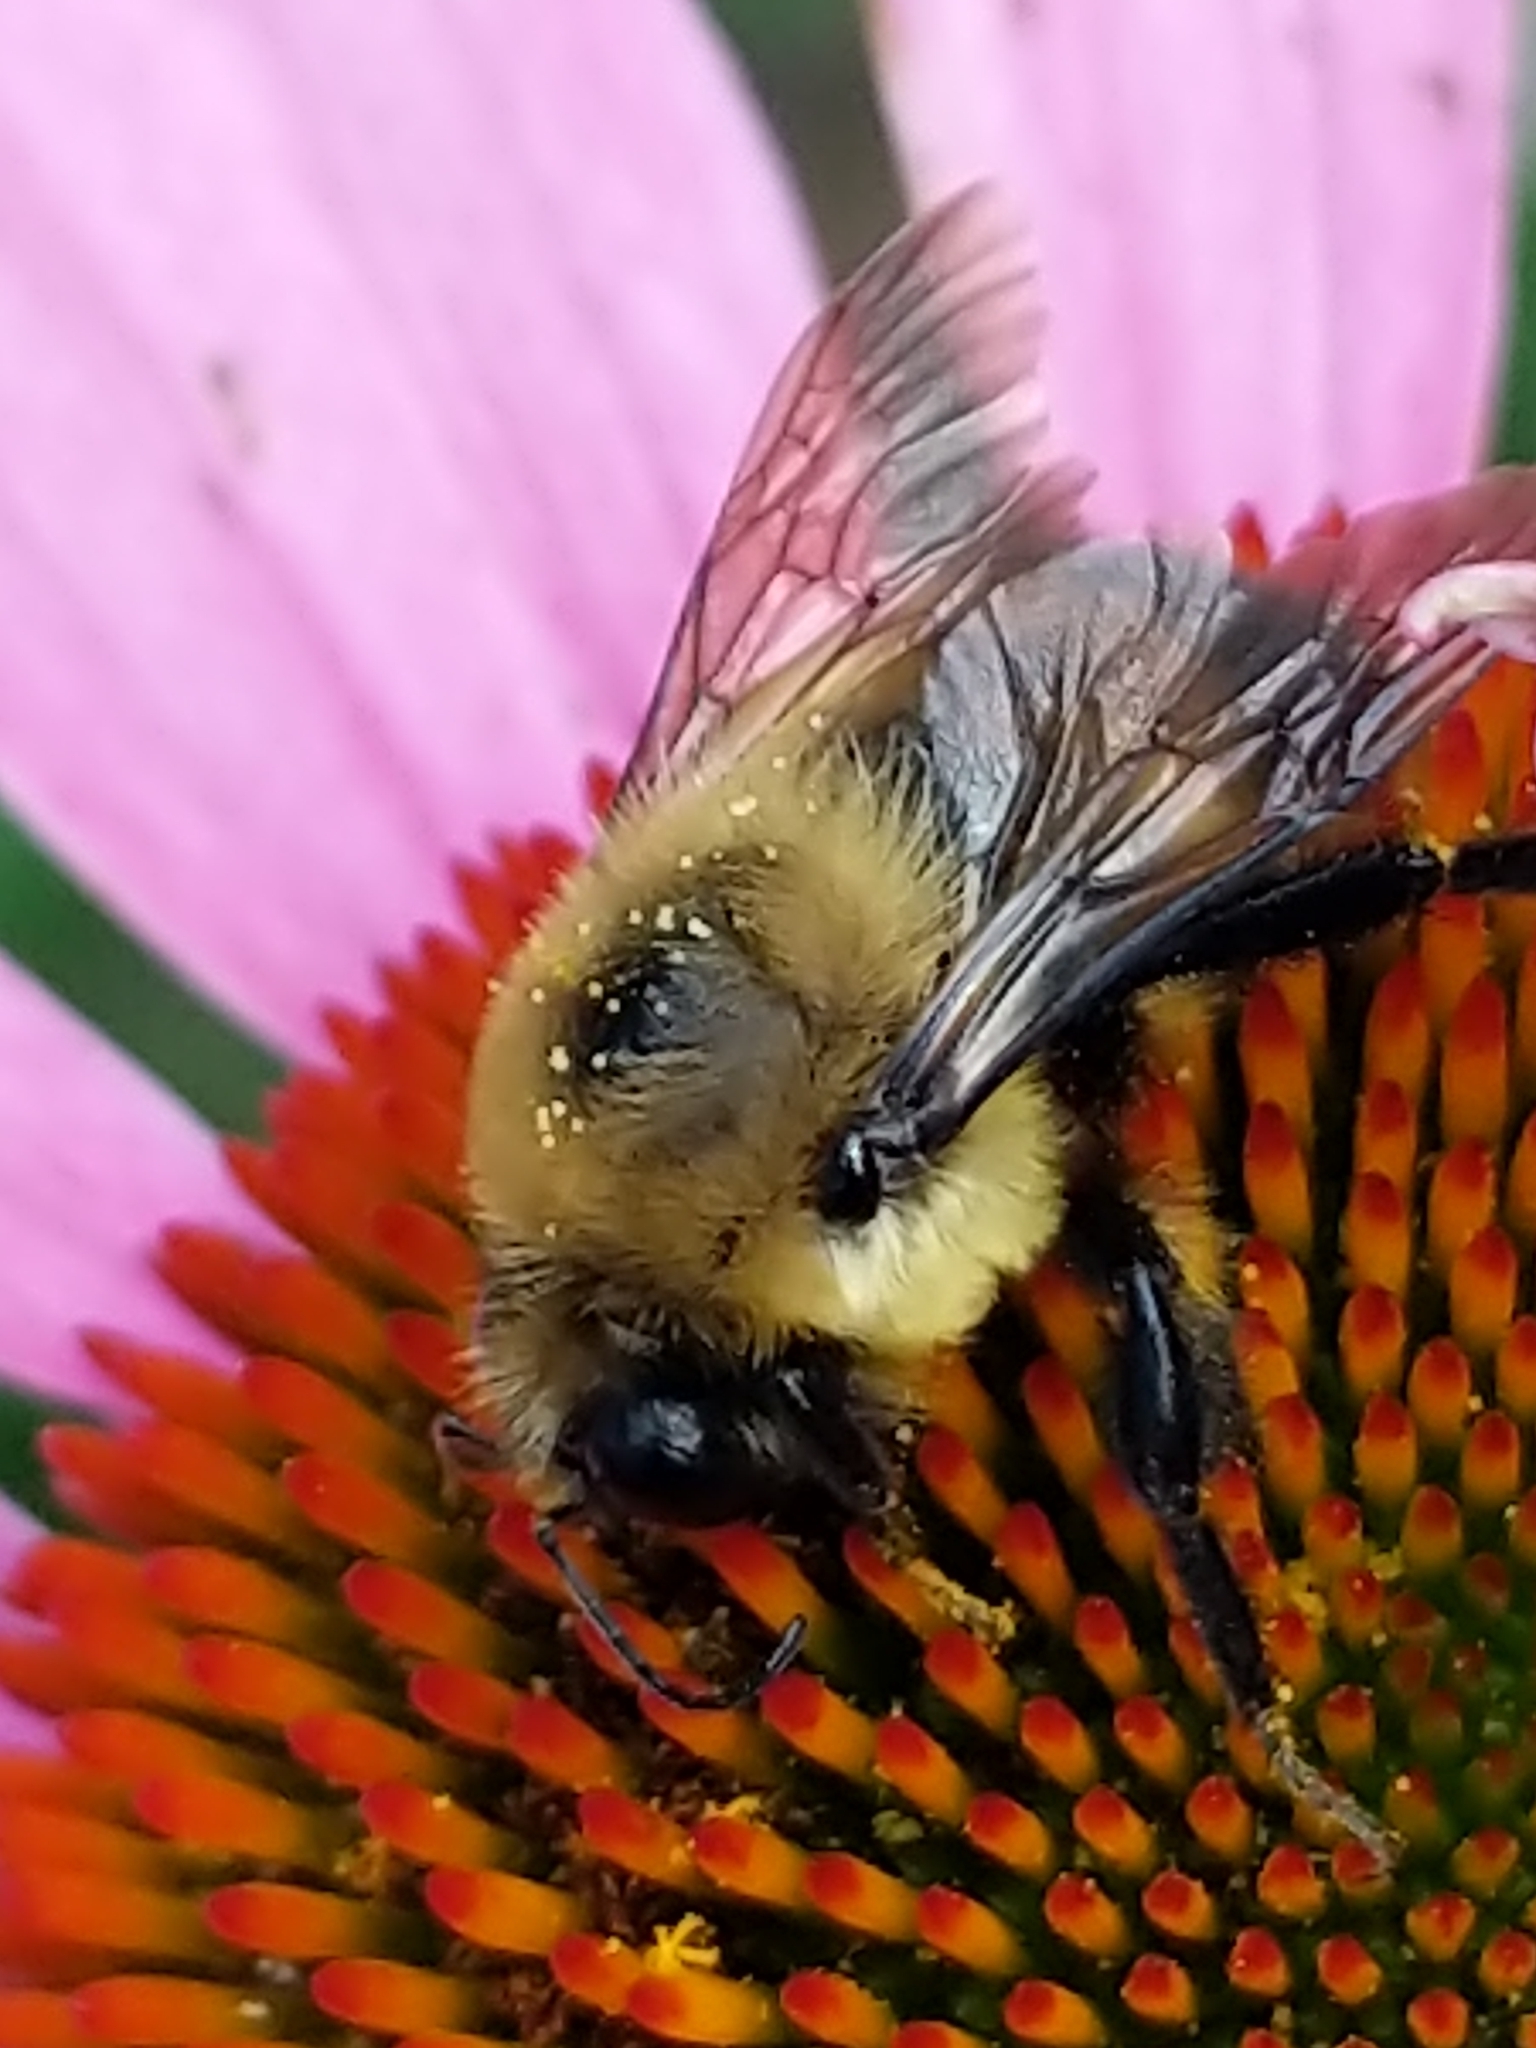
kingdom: Animalia
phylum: Arthropoda
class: Insecta
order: Hymenoptera
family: Apidae
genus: Bombus
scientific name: Bombus griseocollis
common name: Brown-belted bumble bee
